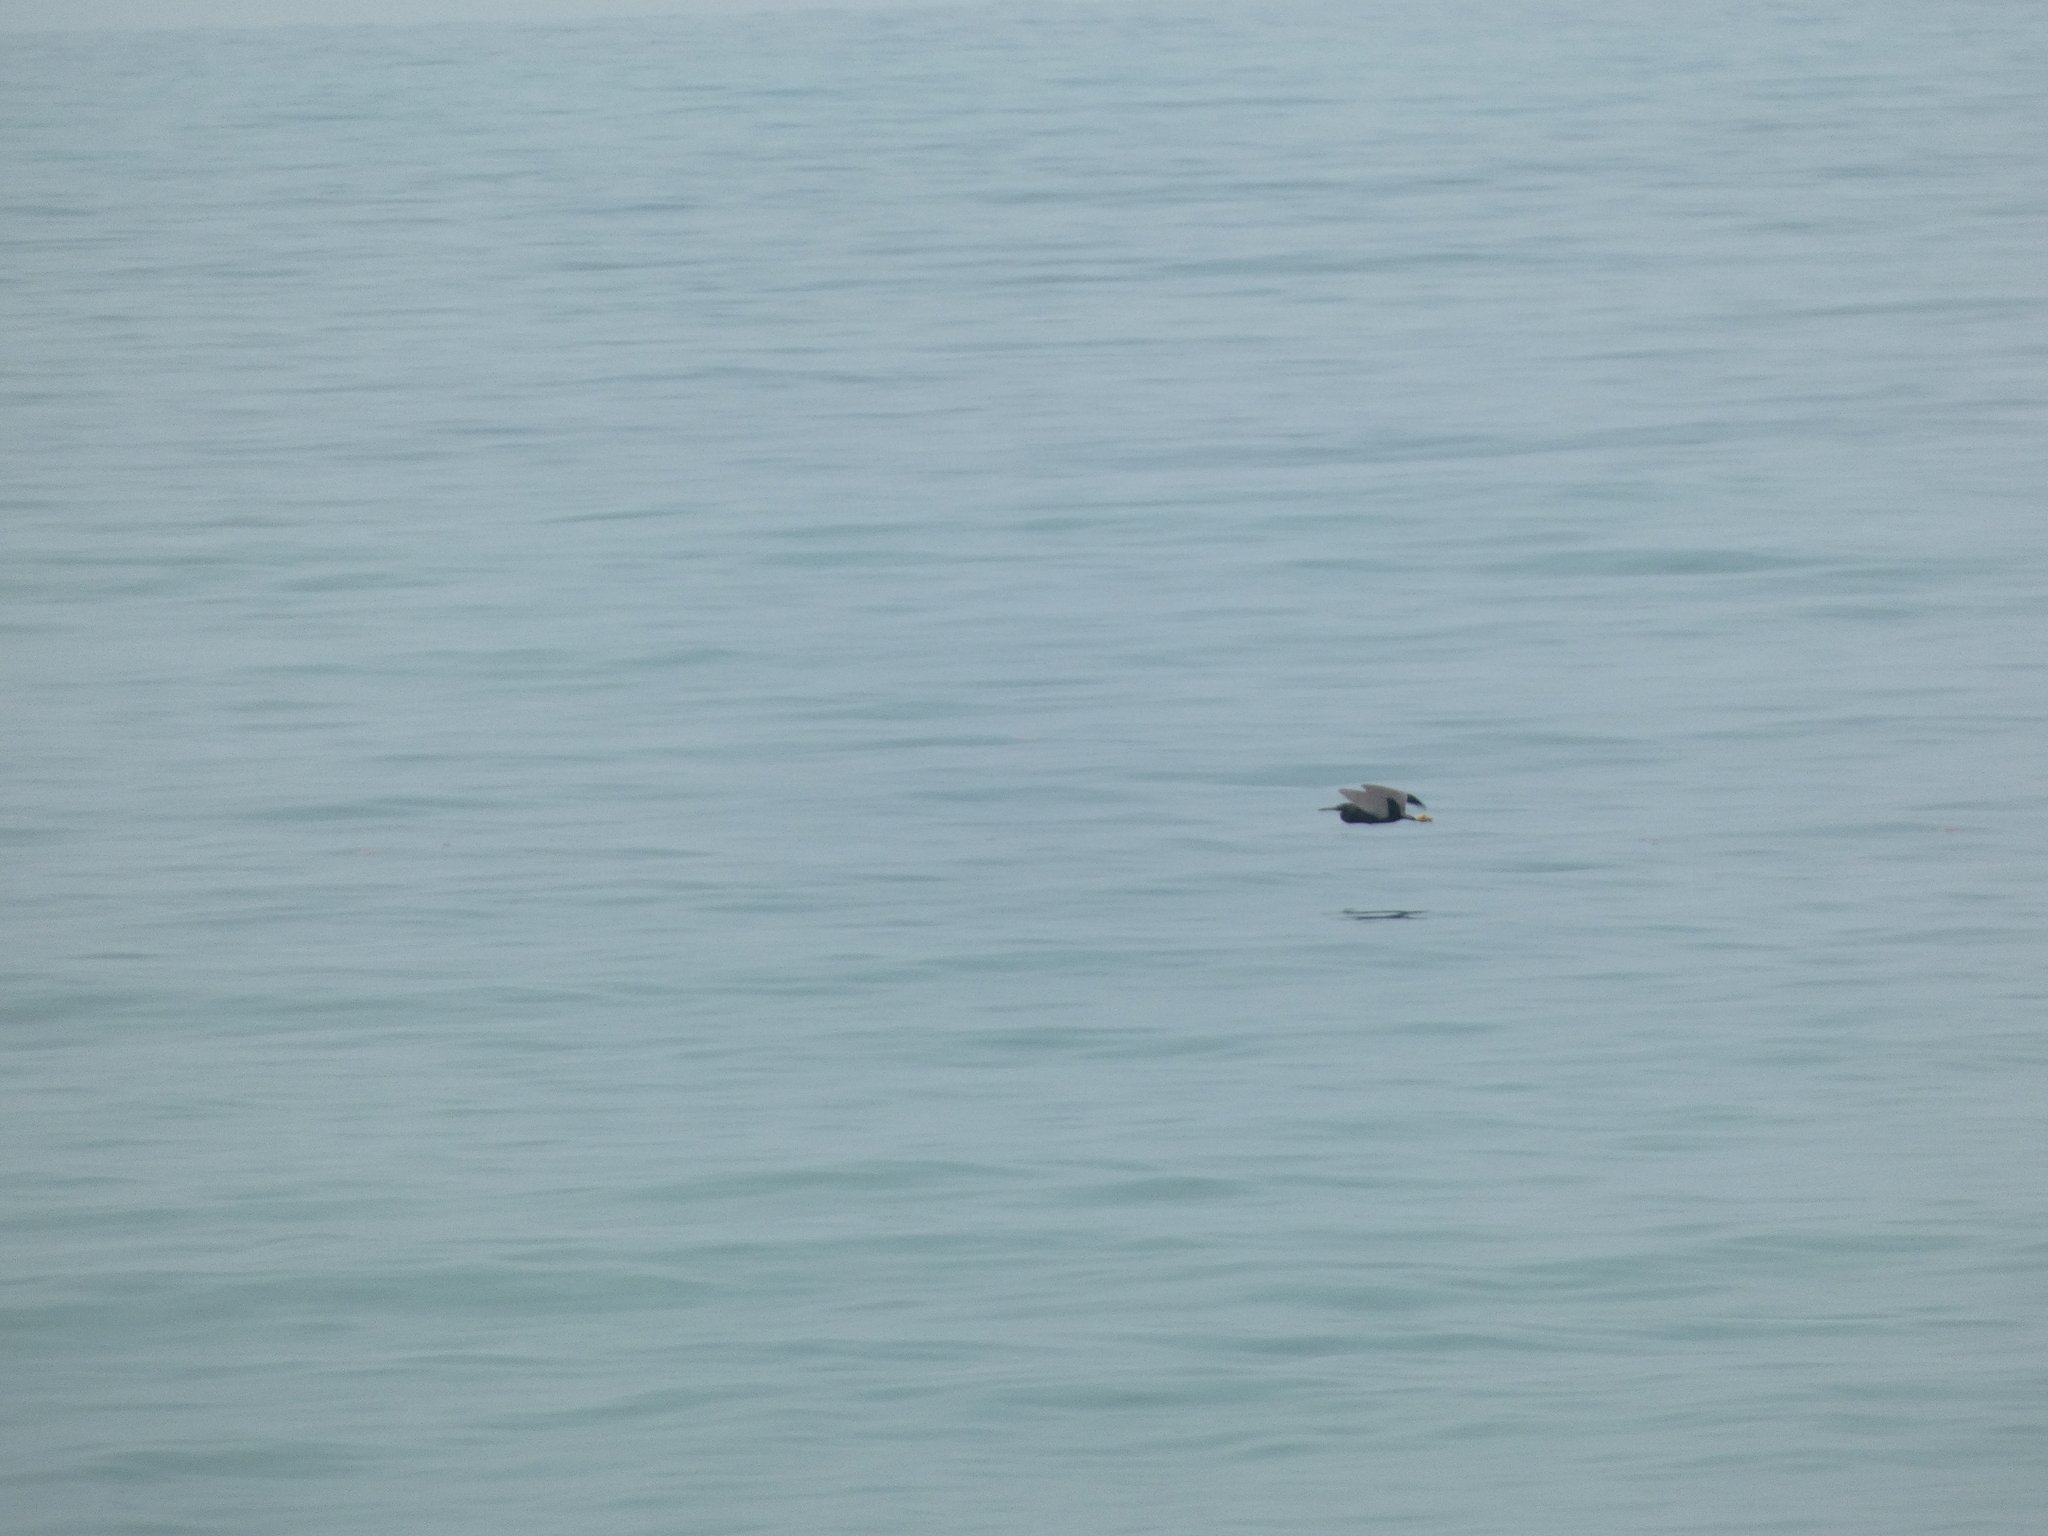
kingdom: Animalia
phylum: Chordata
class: Aves
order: Pelecaniformes
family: Ardeidae
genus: Egretta
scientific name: Egretta sacra
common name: Pacific reef heron
